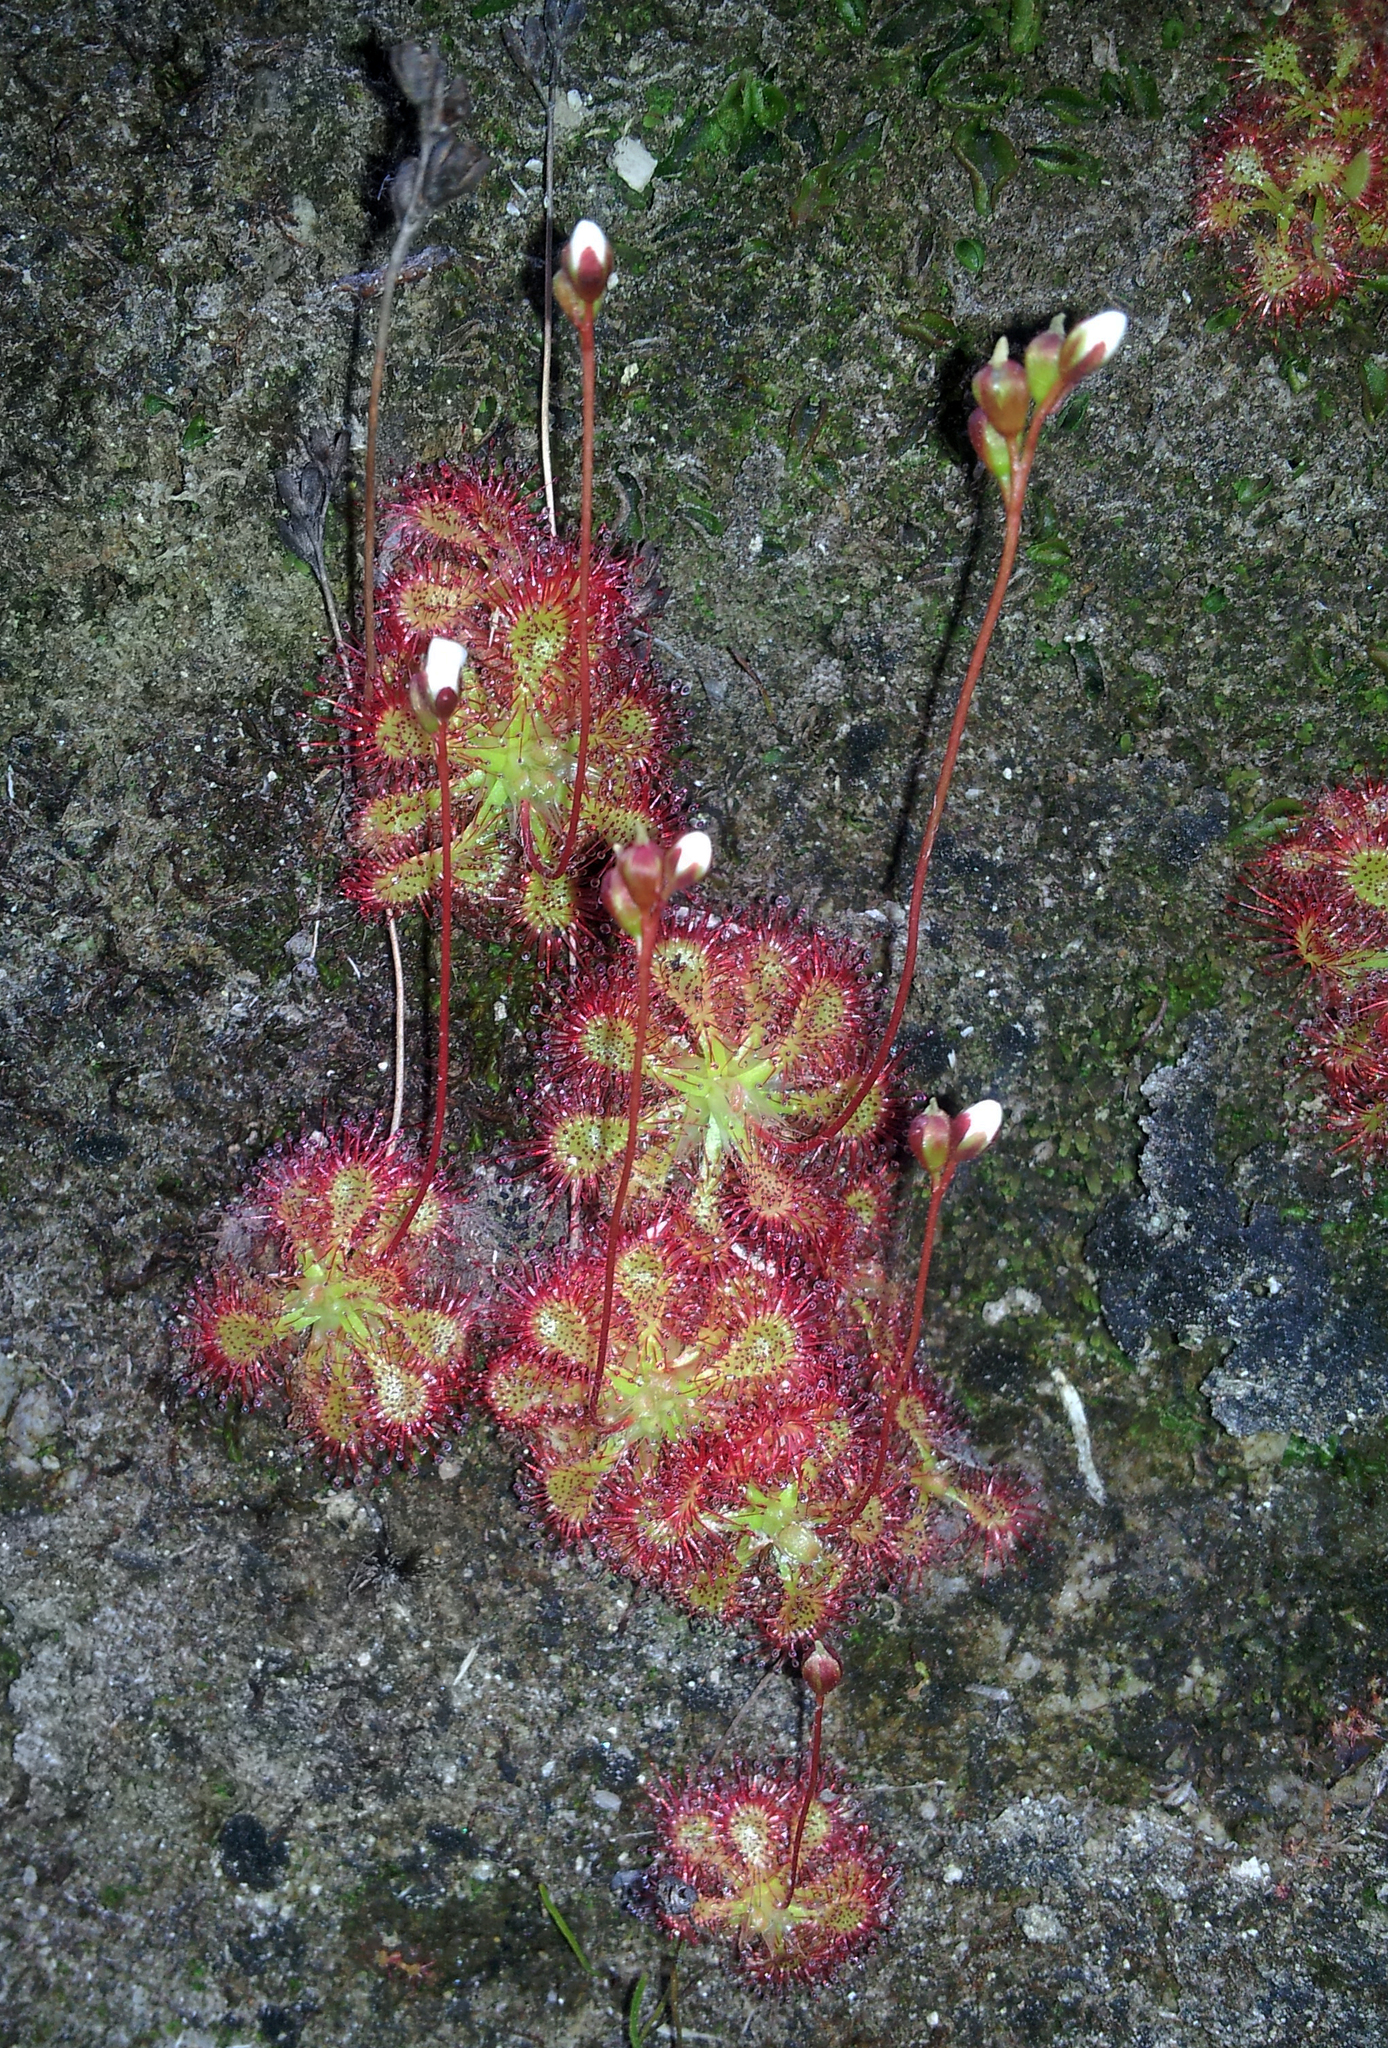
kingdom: Plantae
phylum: Tracheophyta
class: Magnoliopsida
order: Caryophyllales
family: Droseraceae
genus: Drosera
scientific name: Drosera spatulata
